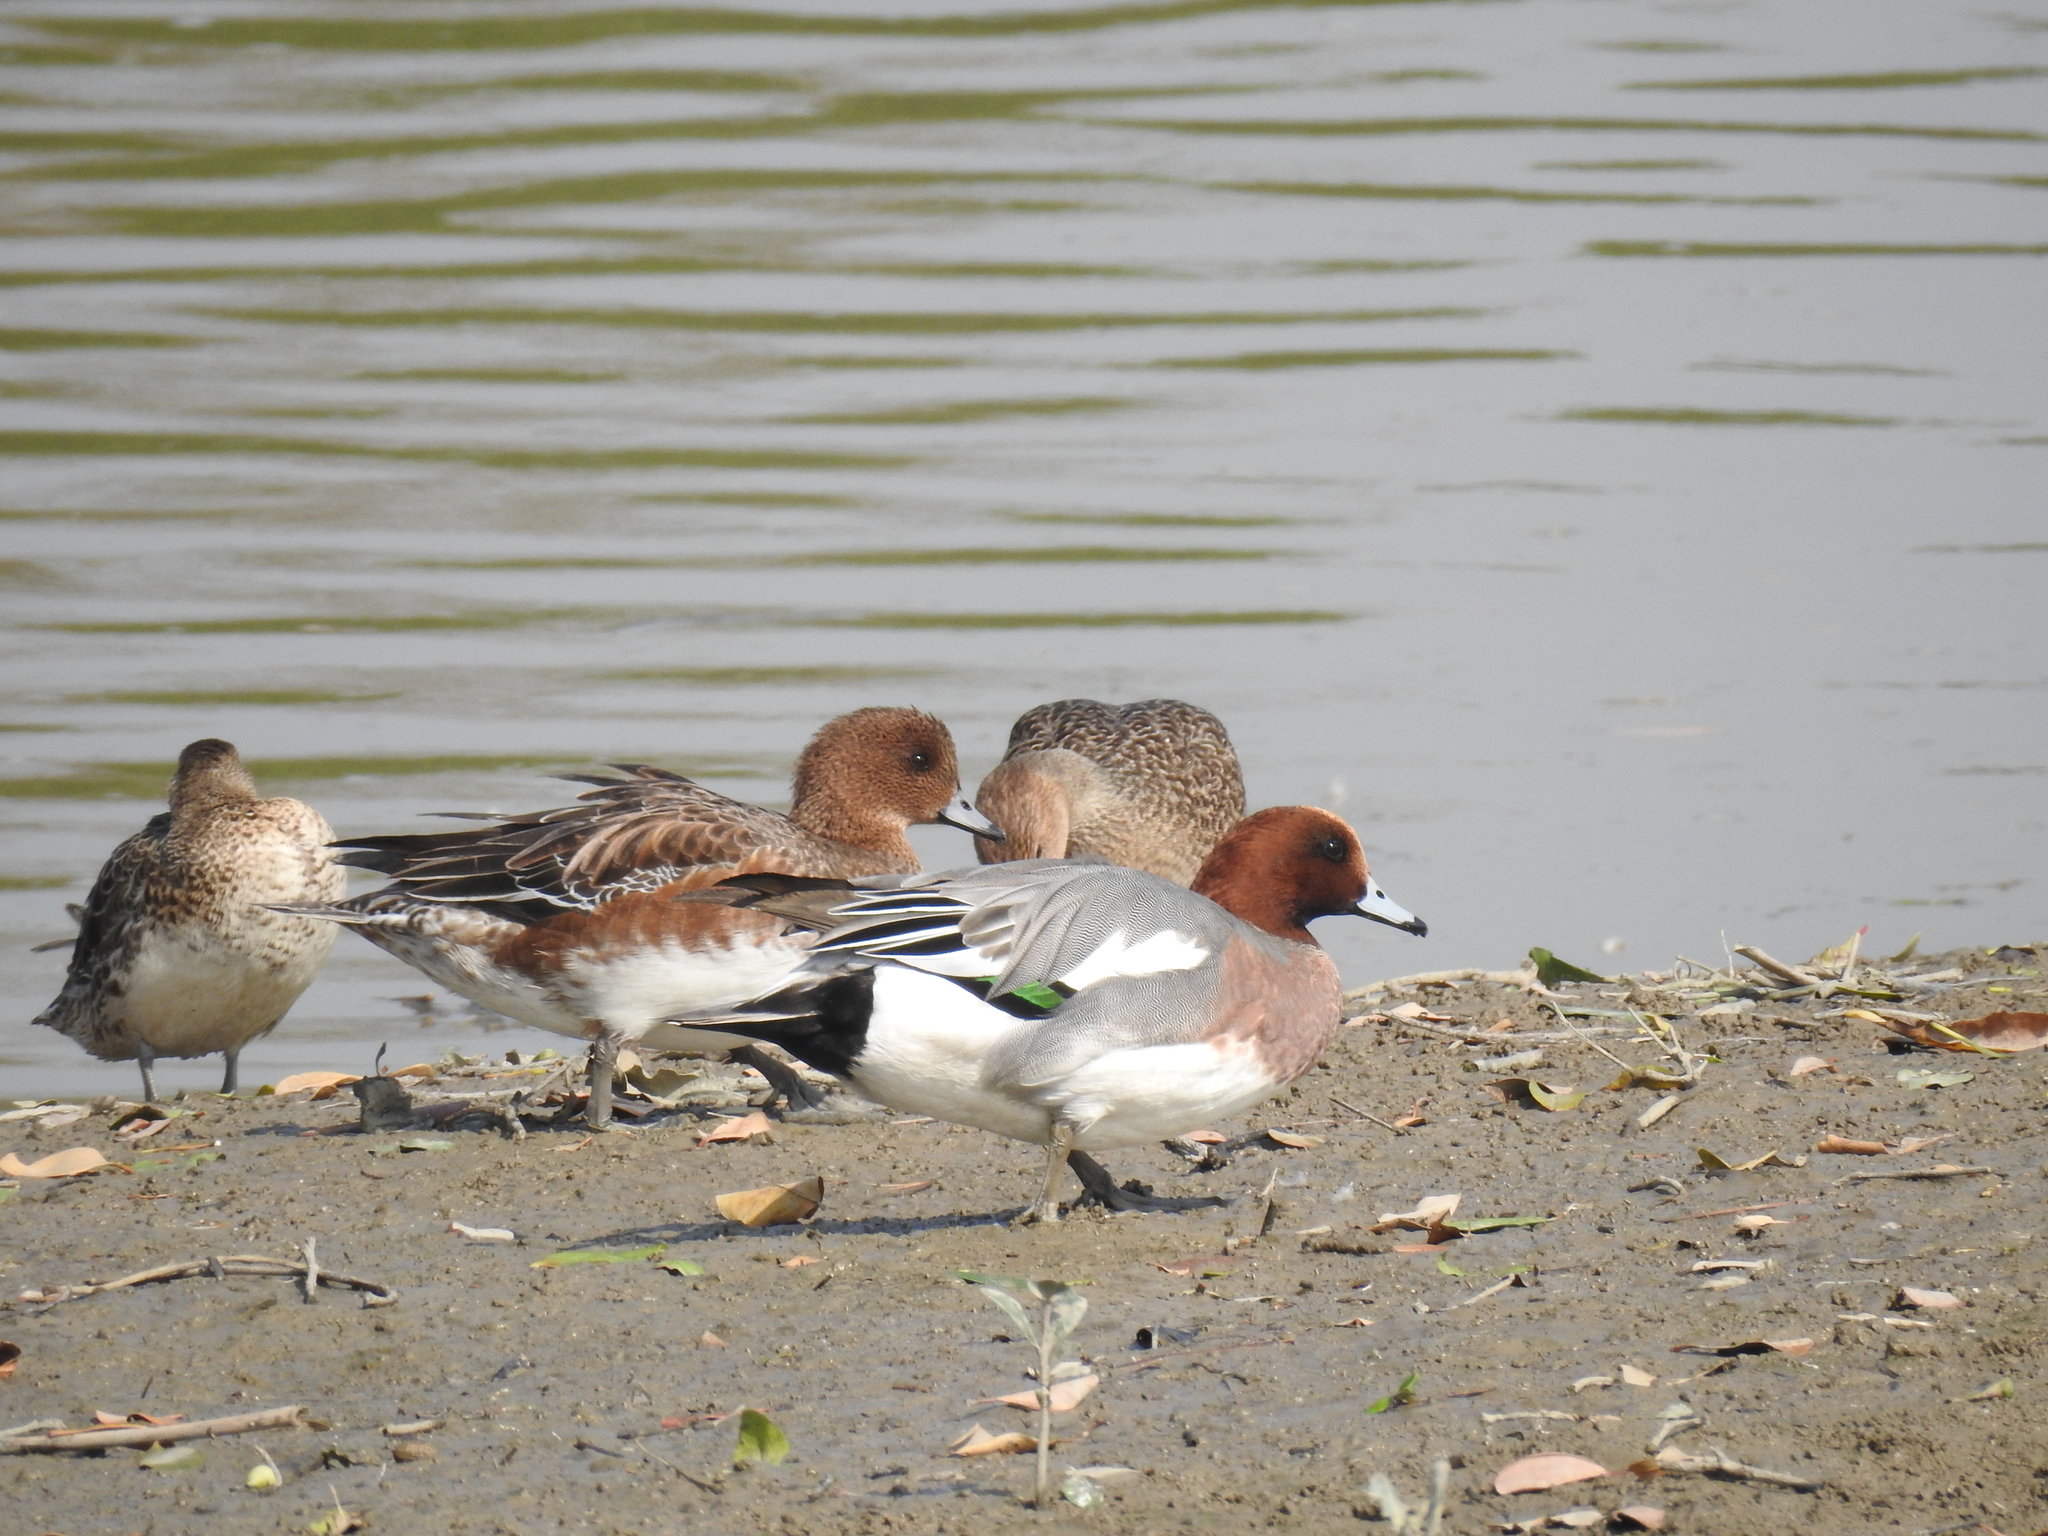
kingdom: Animalia
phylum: Chordata
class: Aves
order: Anseriformes
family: Anatidae
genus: Mareca
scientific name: Mareca penelope
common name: Eurasian wigeon
